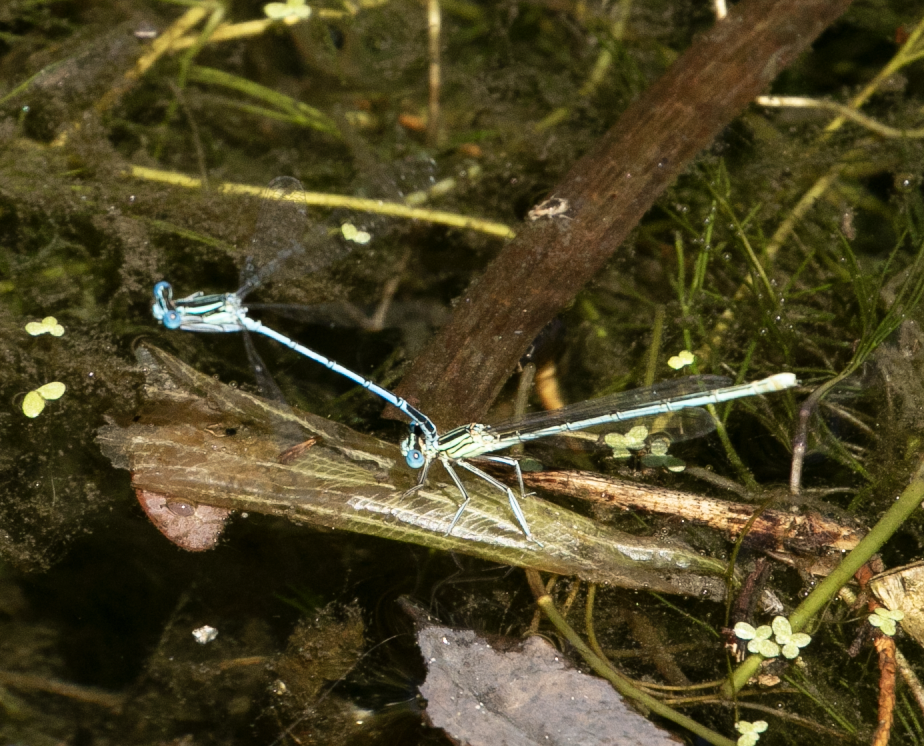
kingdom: Animalia
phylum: Arthropoda
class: Insecta
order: Odonata
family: Platycnemididae
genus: Platycnemis
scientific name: Platycnemis pennipes
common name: White-legged damselfly
